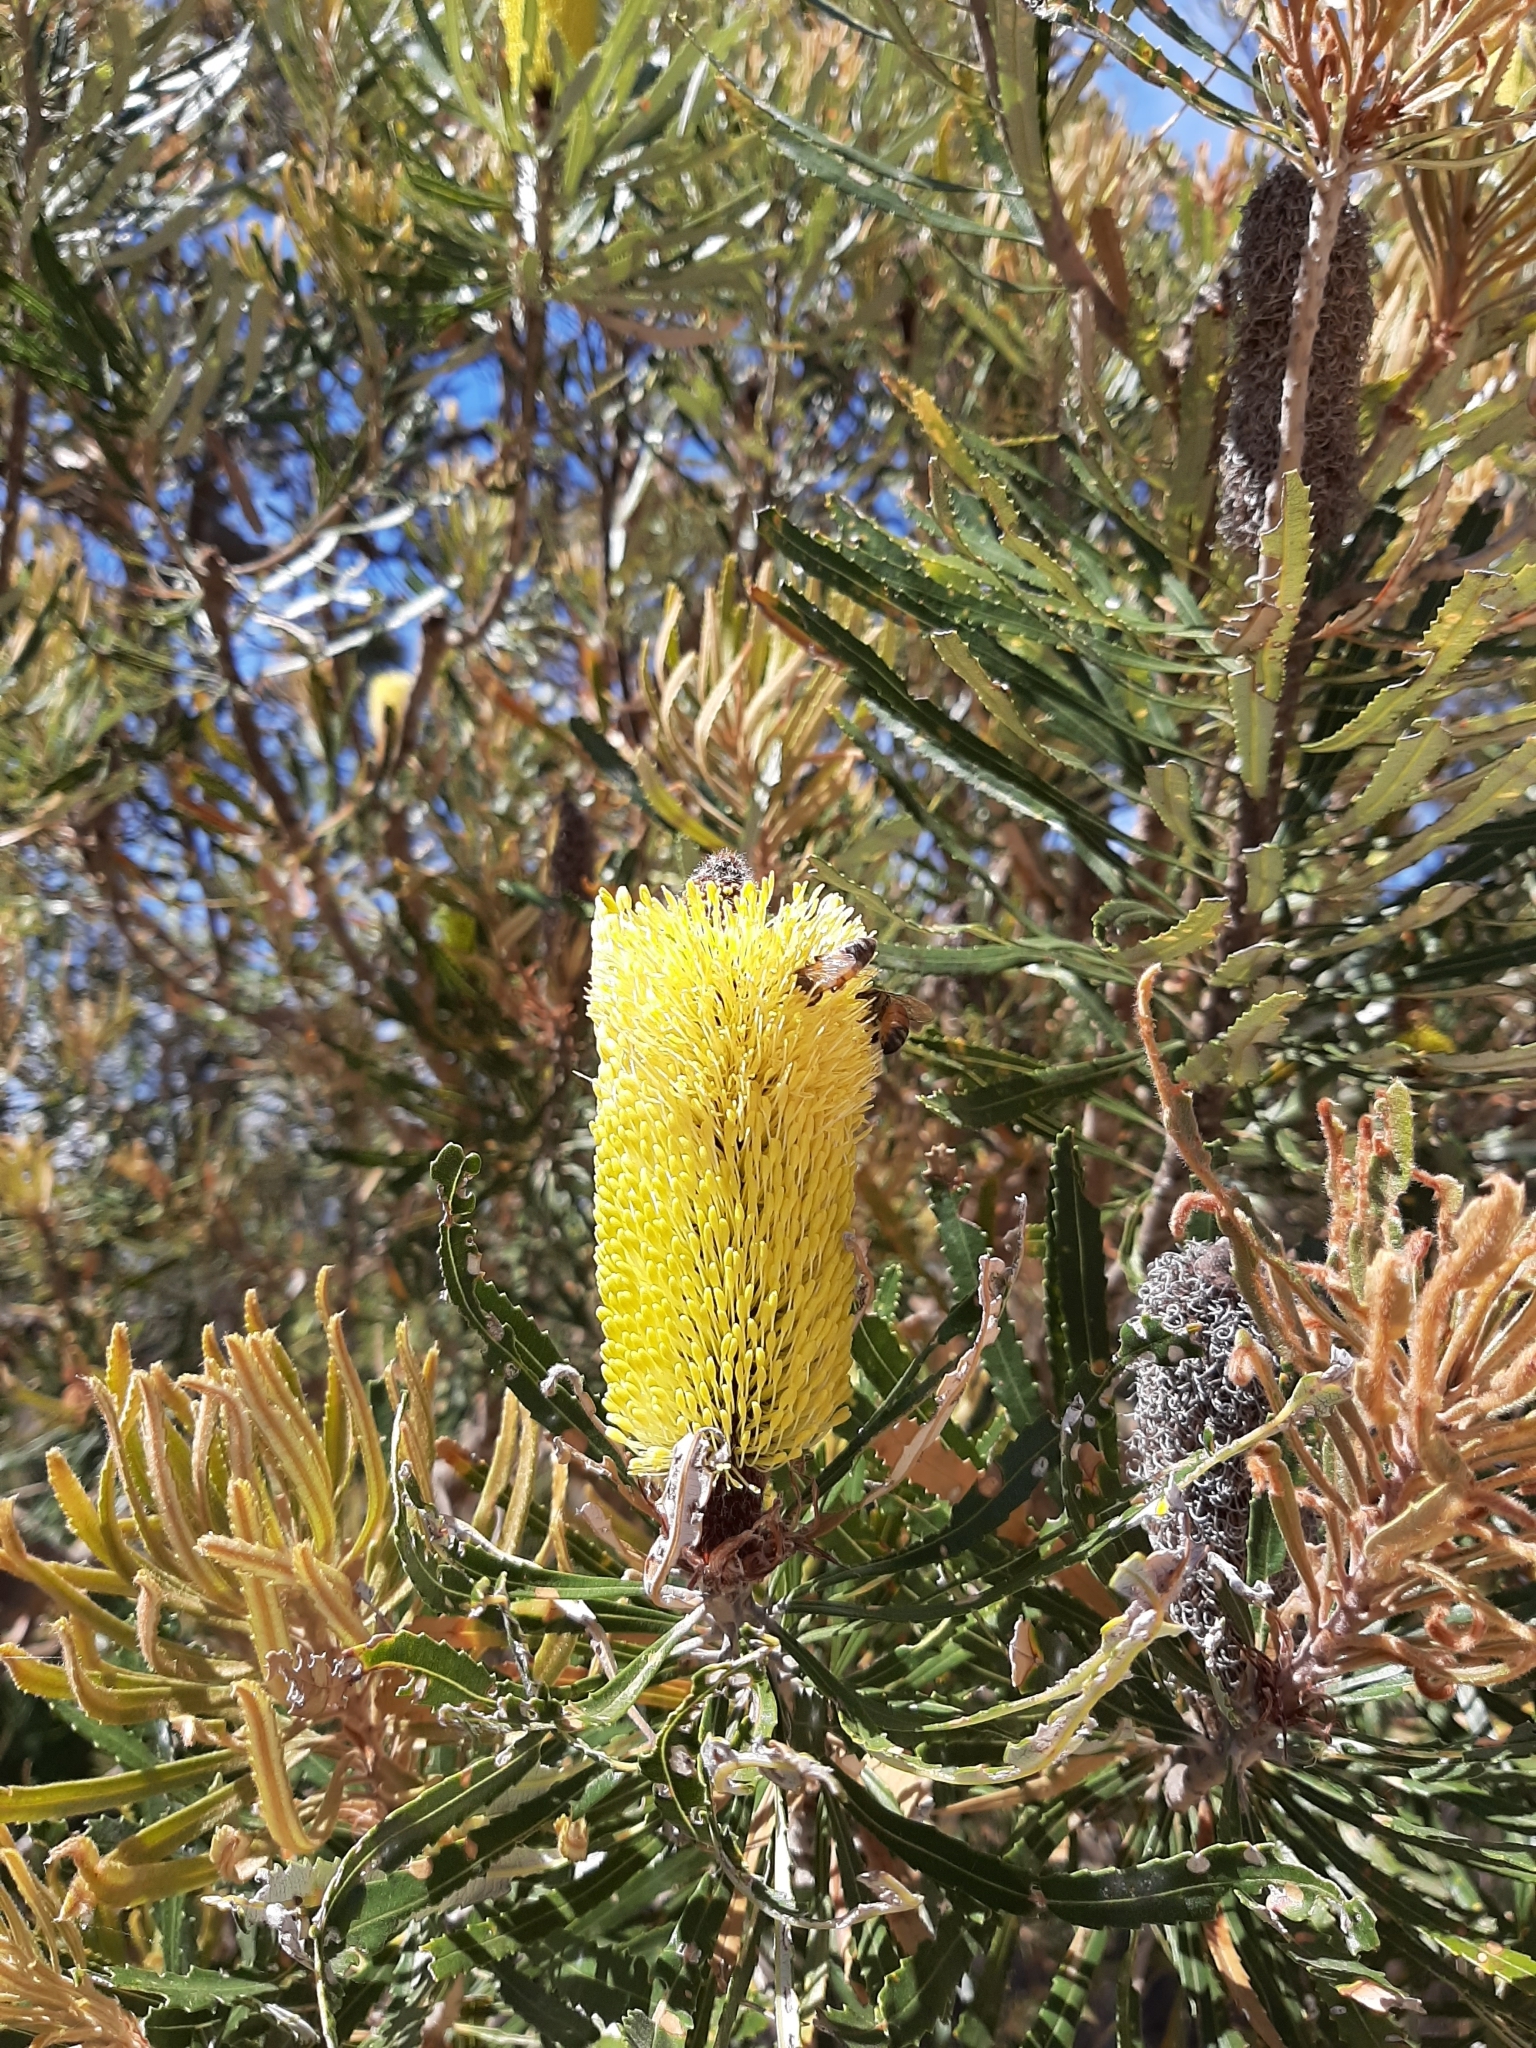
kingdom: Plantae
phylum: Tracheophyta
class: Magnoliopsida
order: Proteales
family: Proteaceae
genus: Banksia
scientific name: Banksia attenuata
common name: Coast banksia
